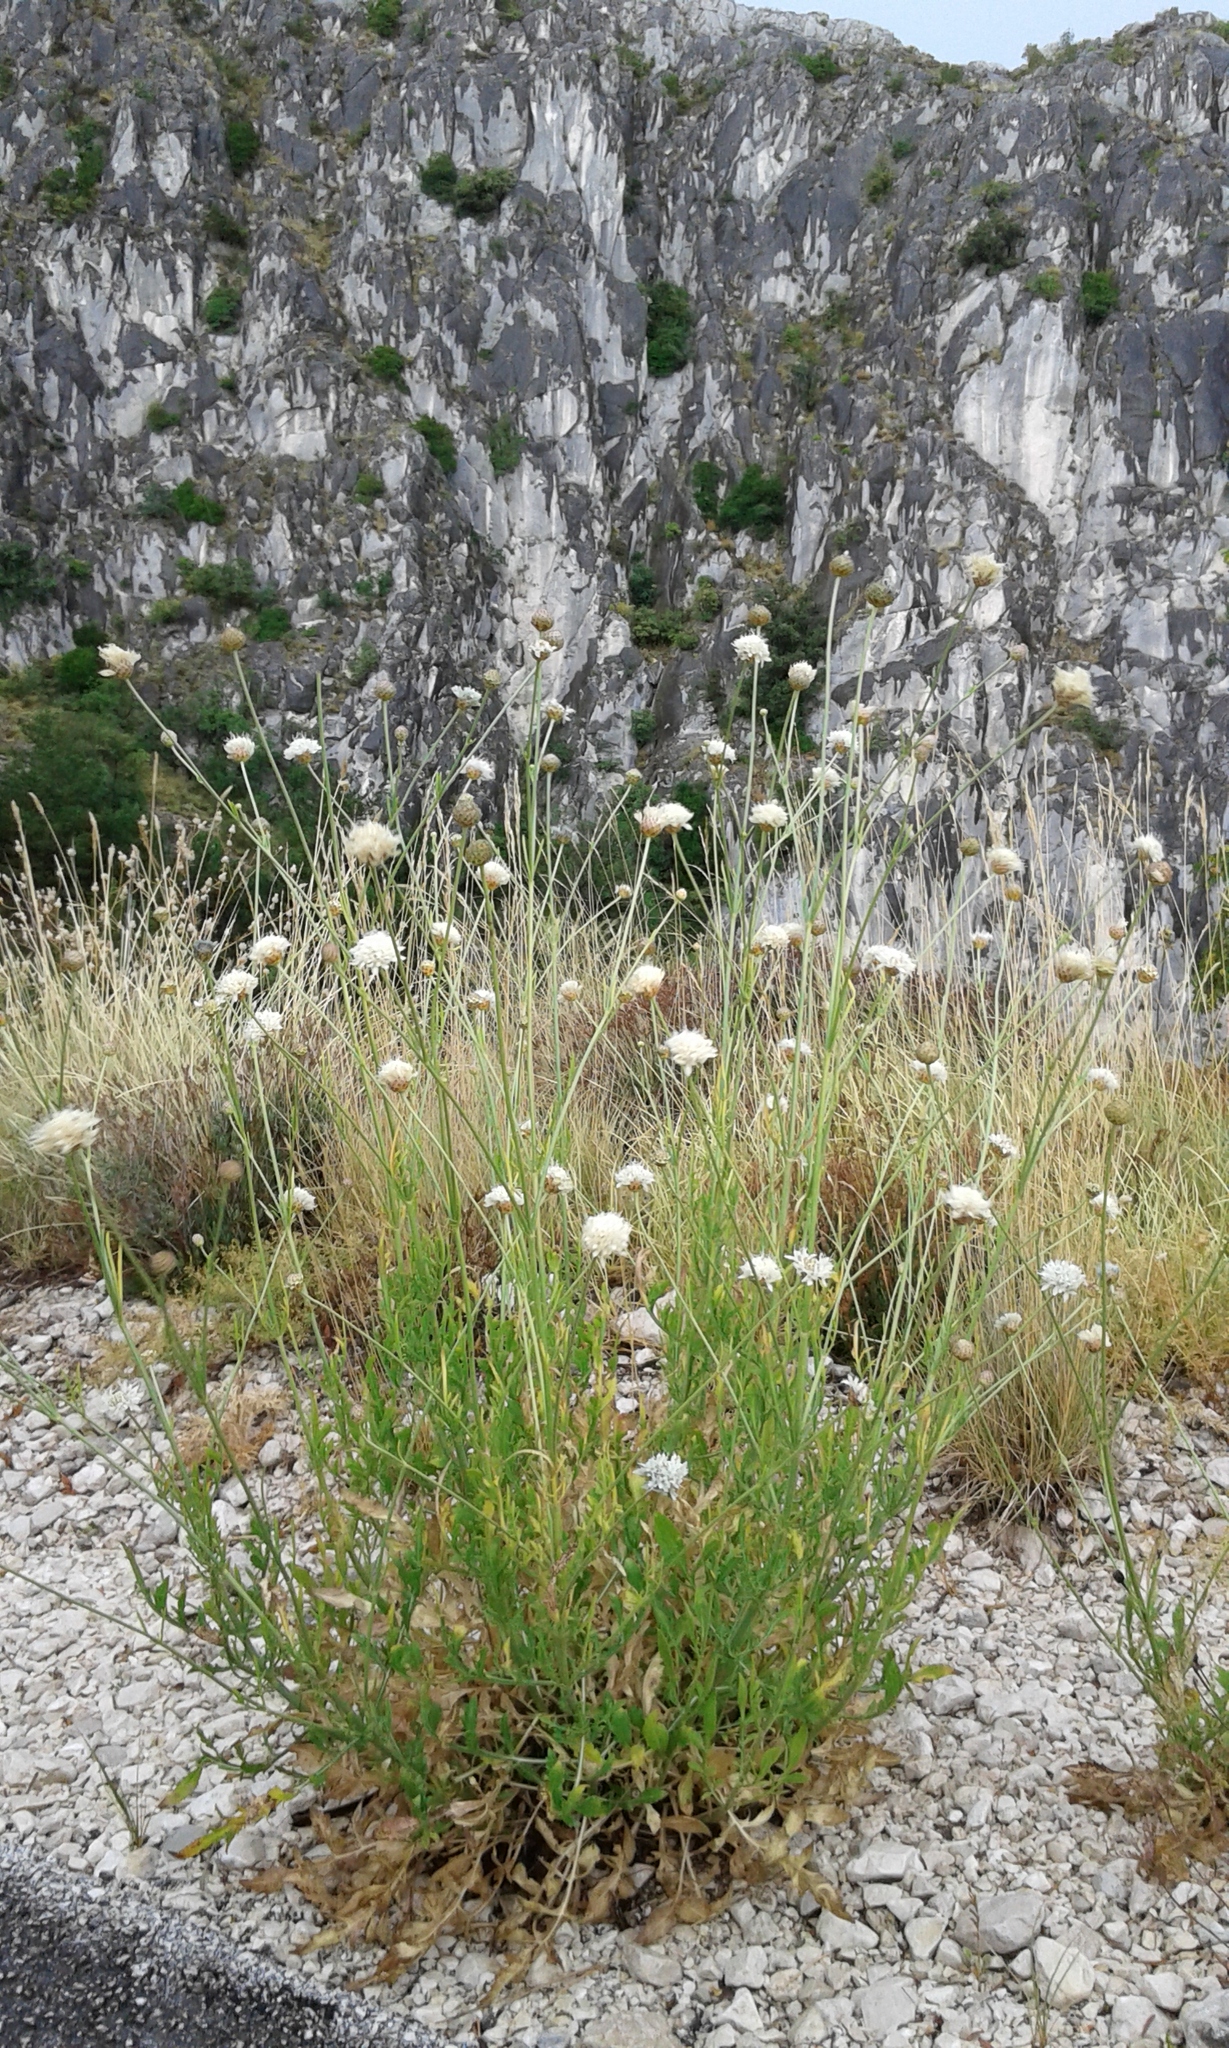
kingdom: Plantae
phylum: Tracheophyta
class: Magnoliopsida
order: Dipsacales
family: Caprifoliaceae
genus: Cephalaria
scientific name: Cephalaria leucantha
